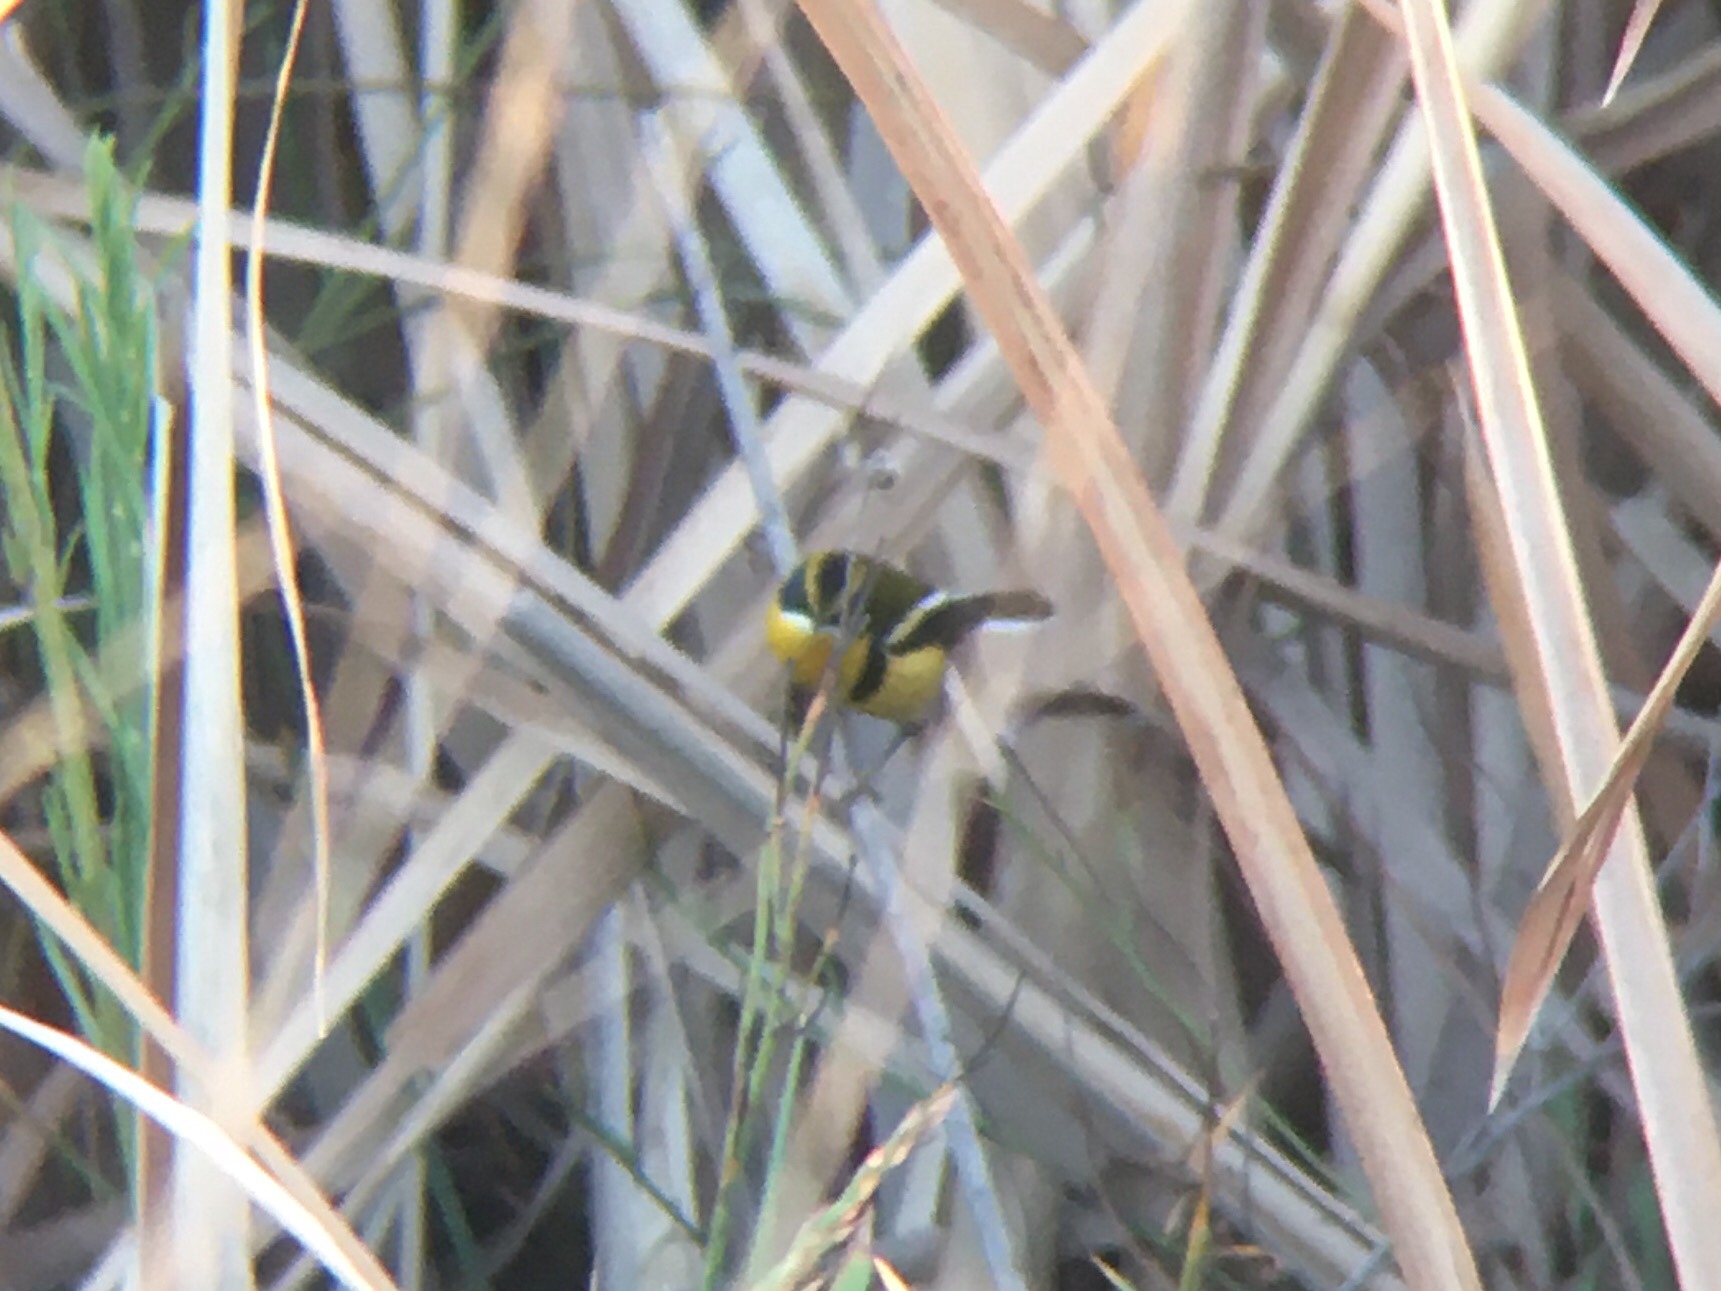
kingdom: Animalia
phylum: Chordata
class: Aves
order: Passeriformes
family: Tyrannidae
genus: Tachuris
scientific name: Tachuris rubrigastra
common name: Many-colored rush tyrant
